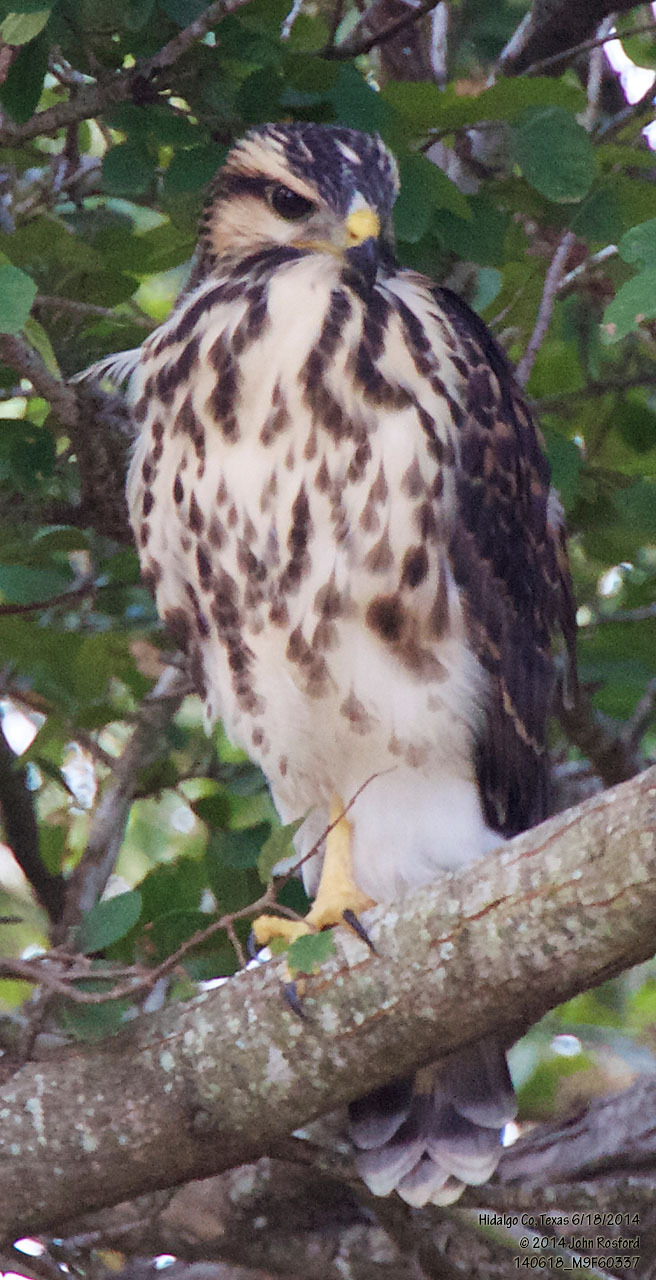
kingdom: Animalia
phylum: Chordata
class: Aves
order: Accipitriformes
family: Accipitridae
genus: Buteo
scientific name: Buteo nitidus
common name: Grey-lined hawk
